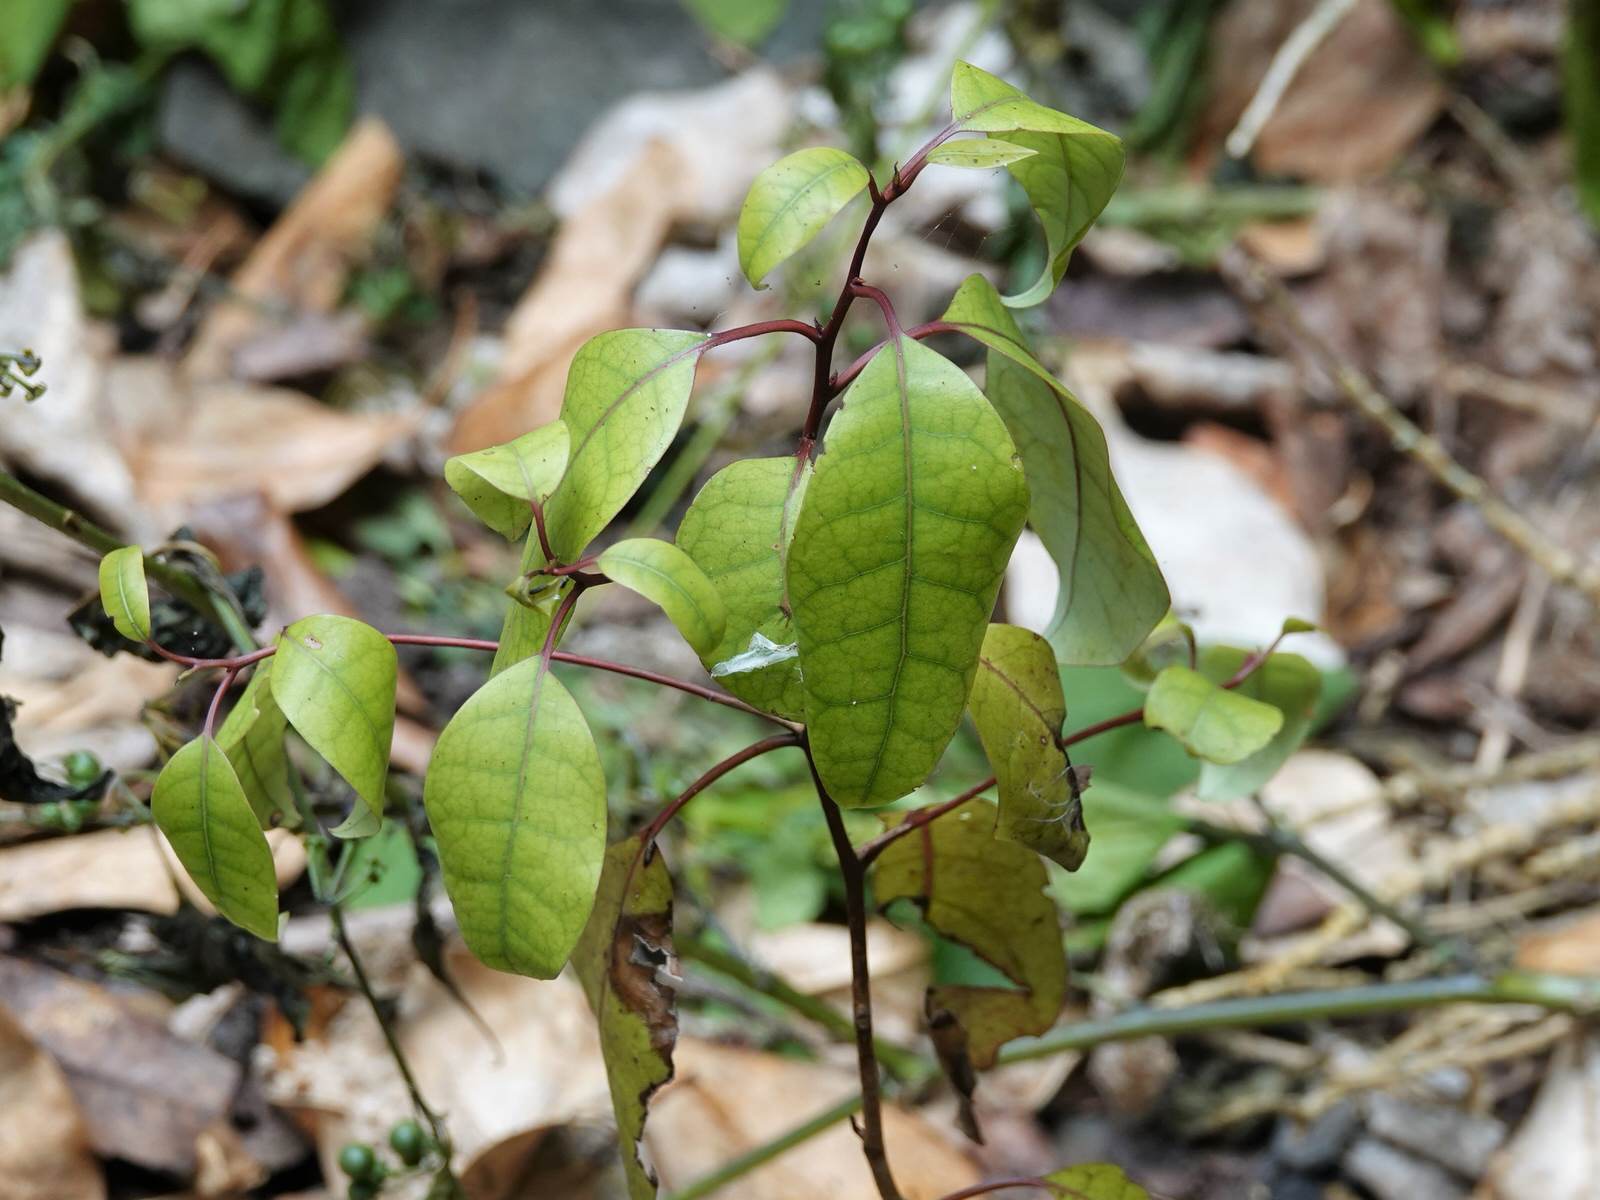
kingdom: Plantae
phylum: Tracheophyta
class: Magnoliopsida
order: Laurales
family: Lauraceae
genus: Litsea
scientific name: Litsea calicaris
